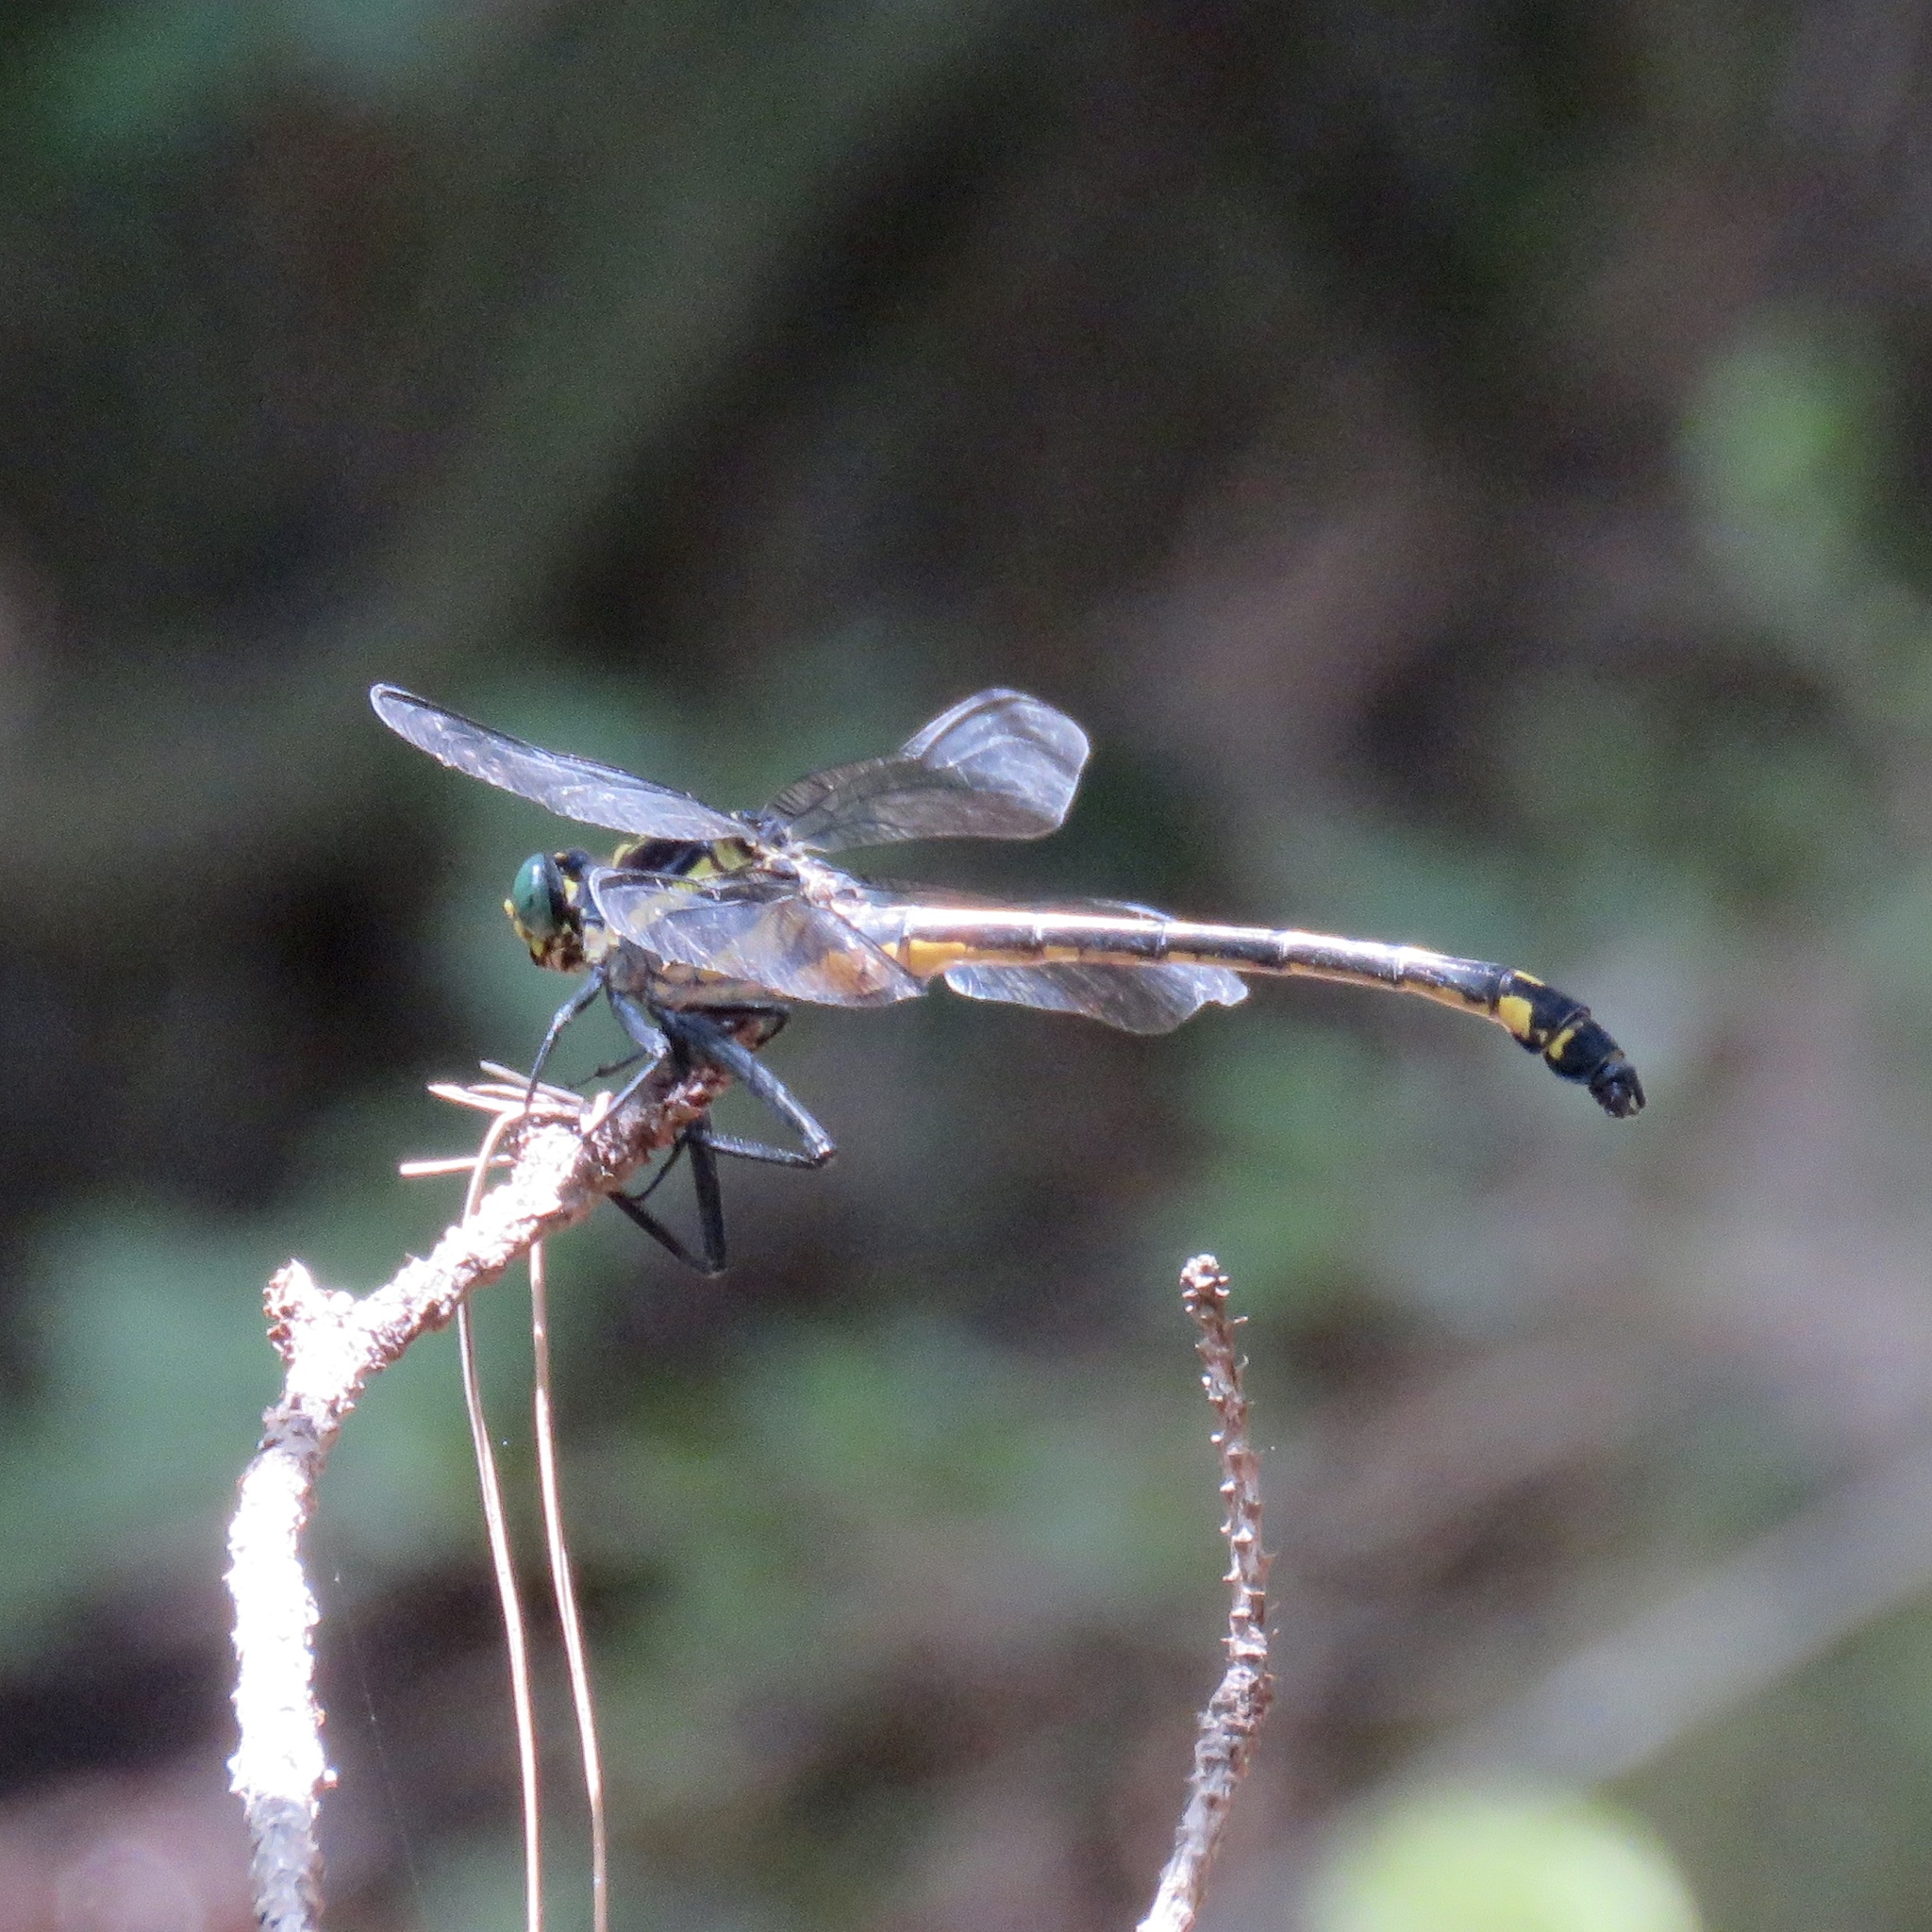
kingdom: Animalia
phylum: Arthropoda
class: Insecta
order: Odonata
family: Gomphidae
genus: Hagenius
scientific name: Hagenius brevistylus
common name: Dragonhunter
